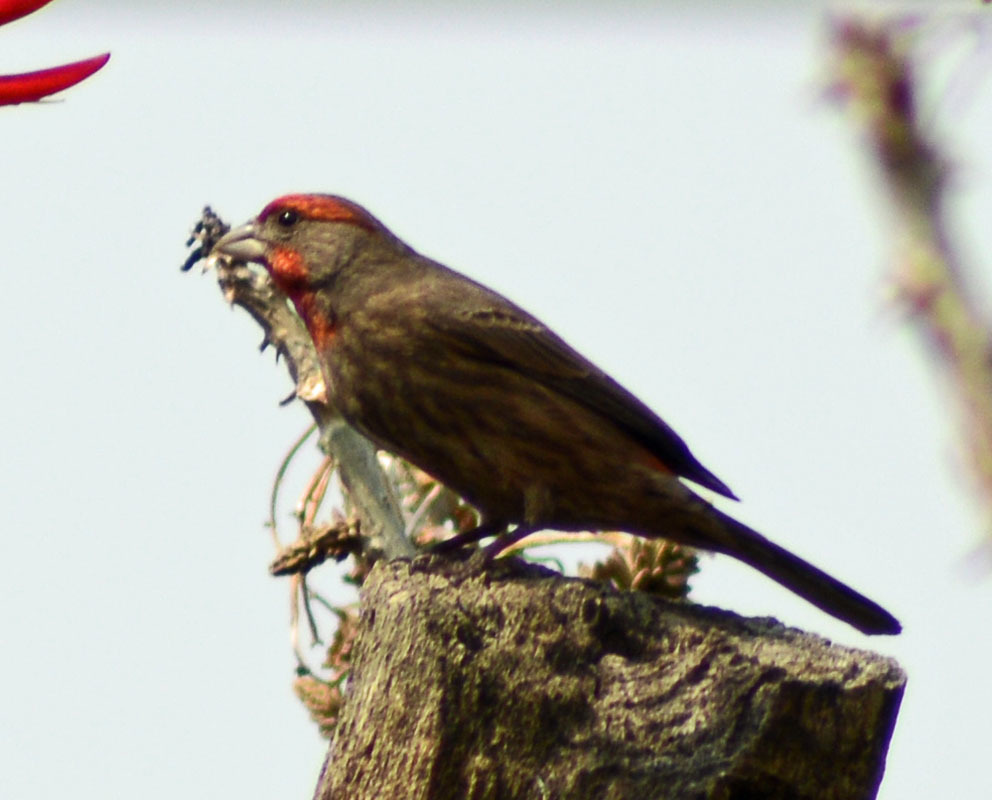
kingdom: Animalia
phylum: Chordata
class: Aves
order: Passeriformes
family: Fringillidae
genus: Haemorhous
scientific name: Haemorhous mexicanus
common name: House finch
